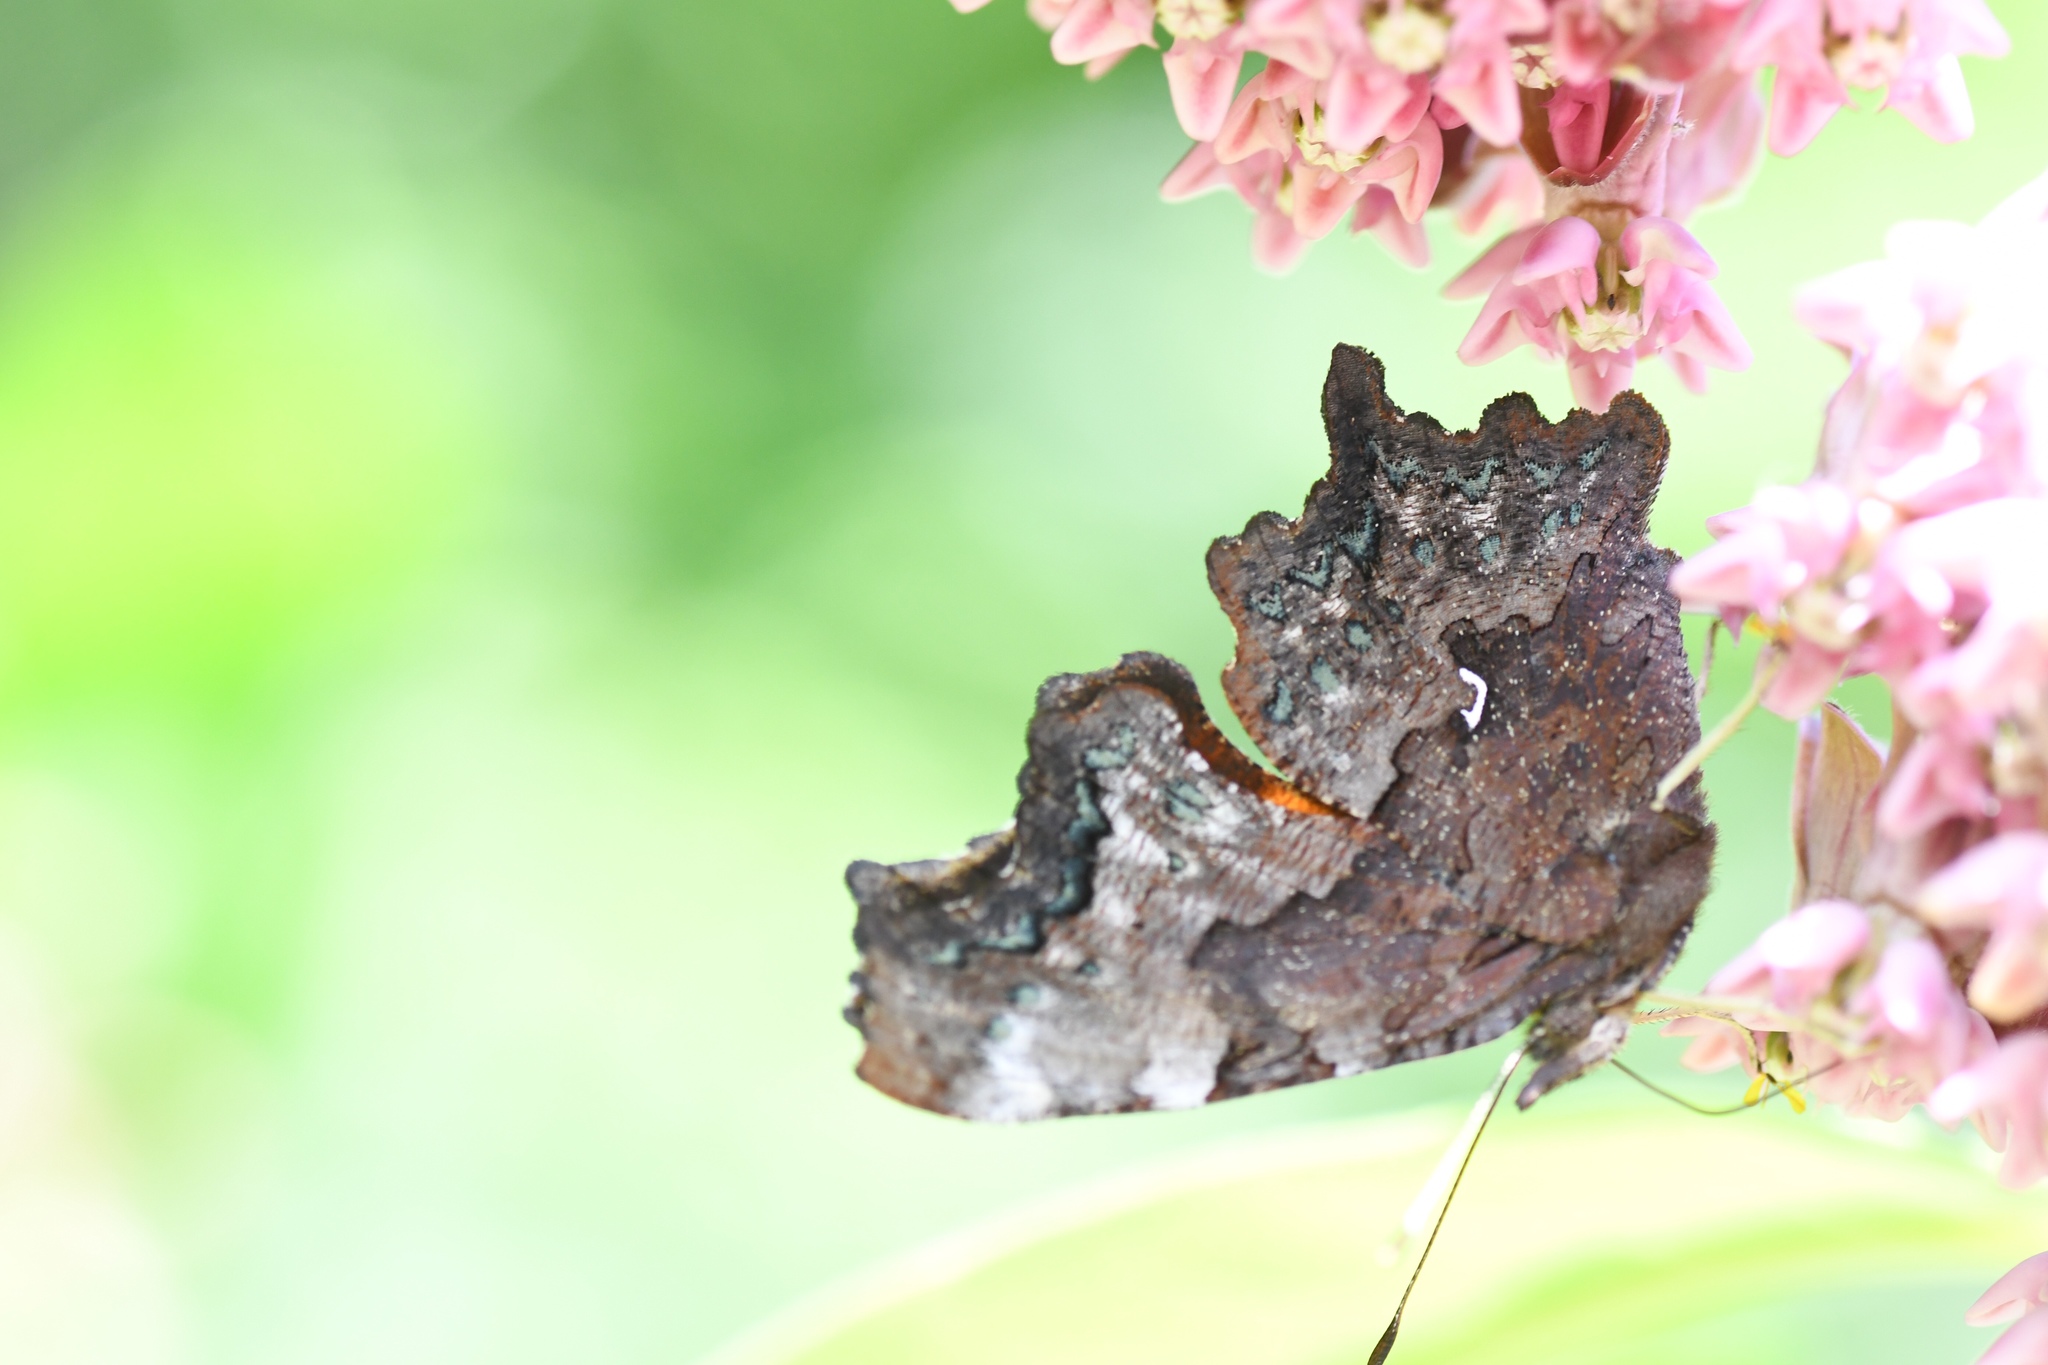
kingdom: Animalia
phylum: Arthropoda
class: Insecta
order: Lepidoptera
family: Nymphalidae
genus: Polygonia
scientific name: Polygonia faunus
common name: Green comma
